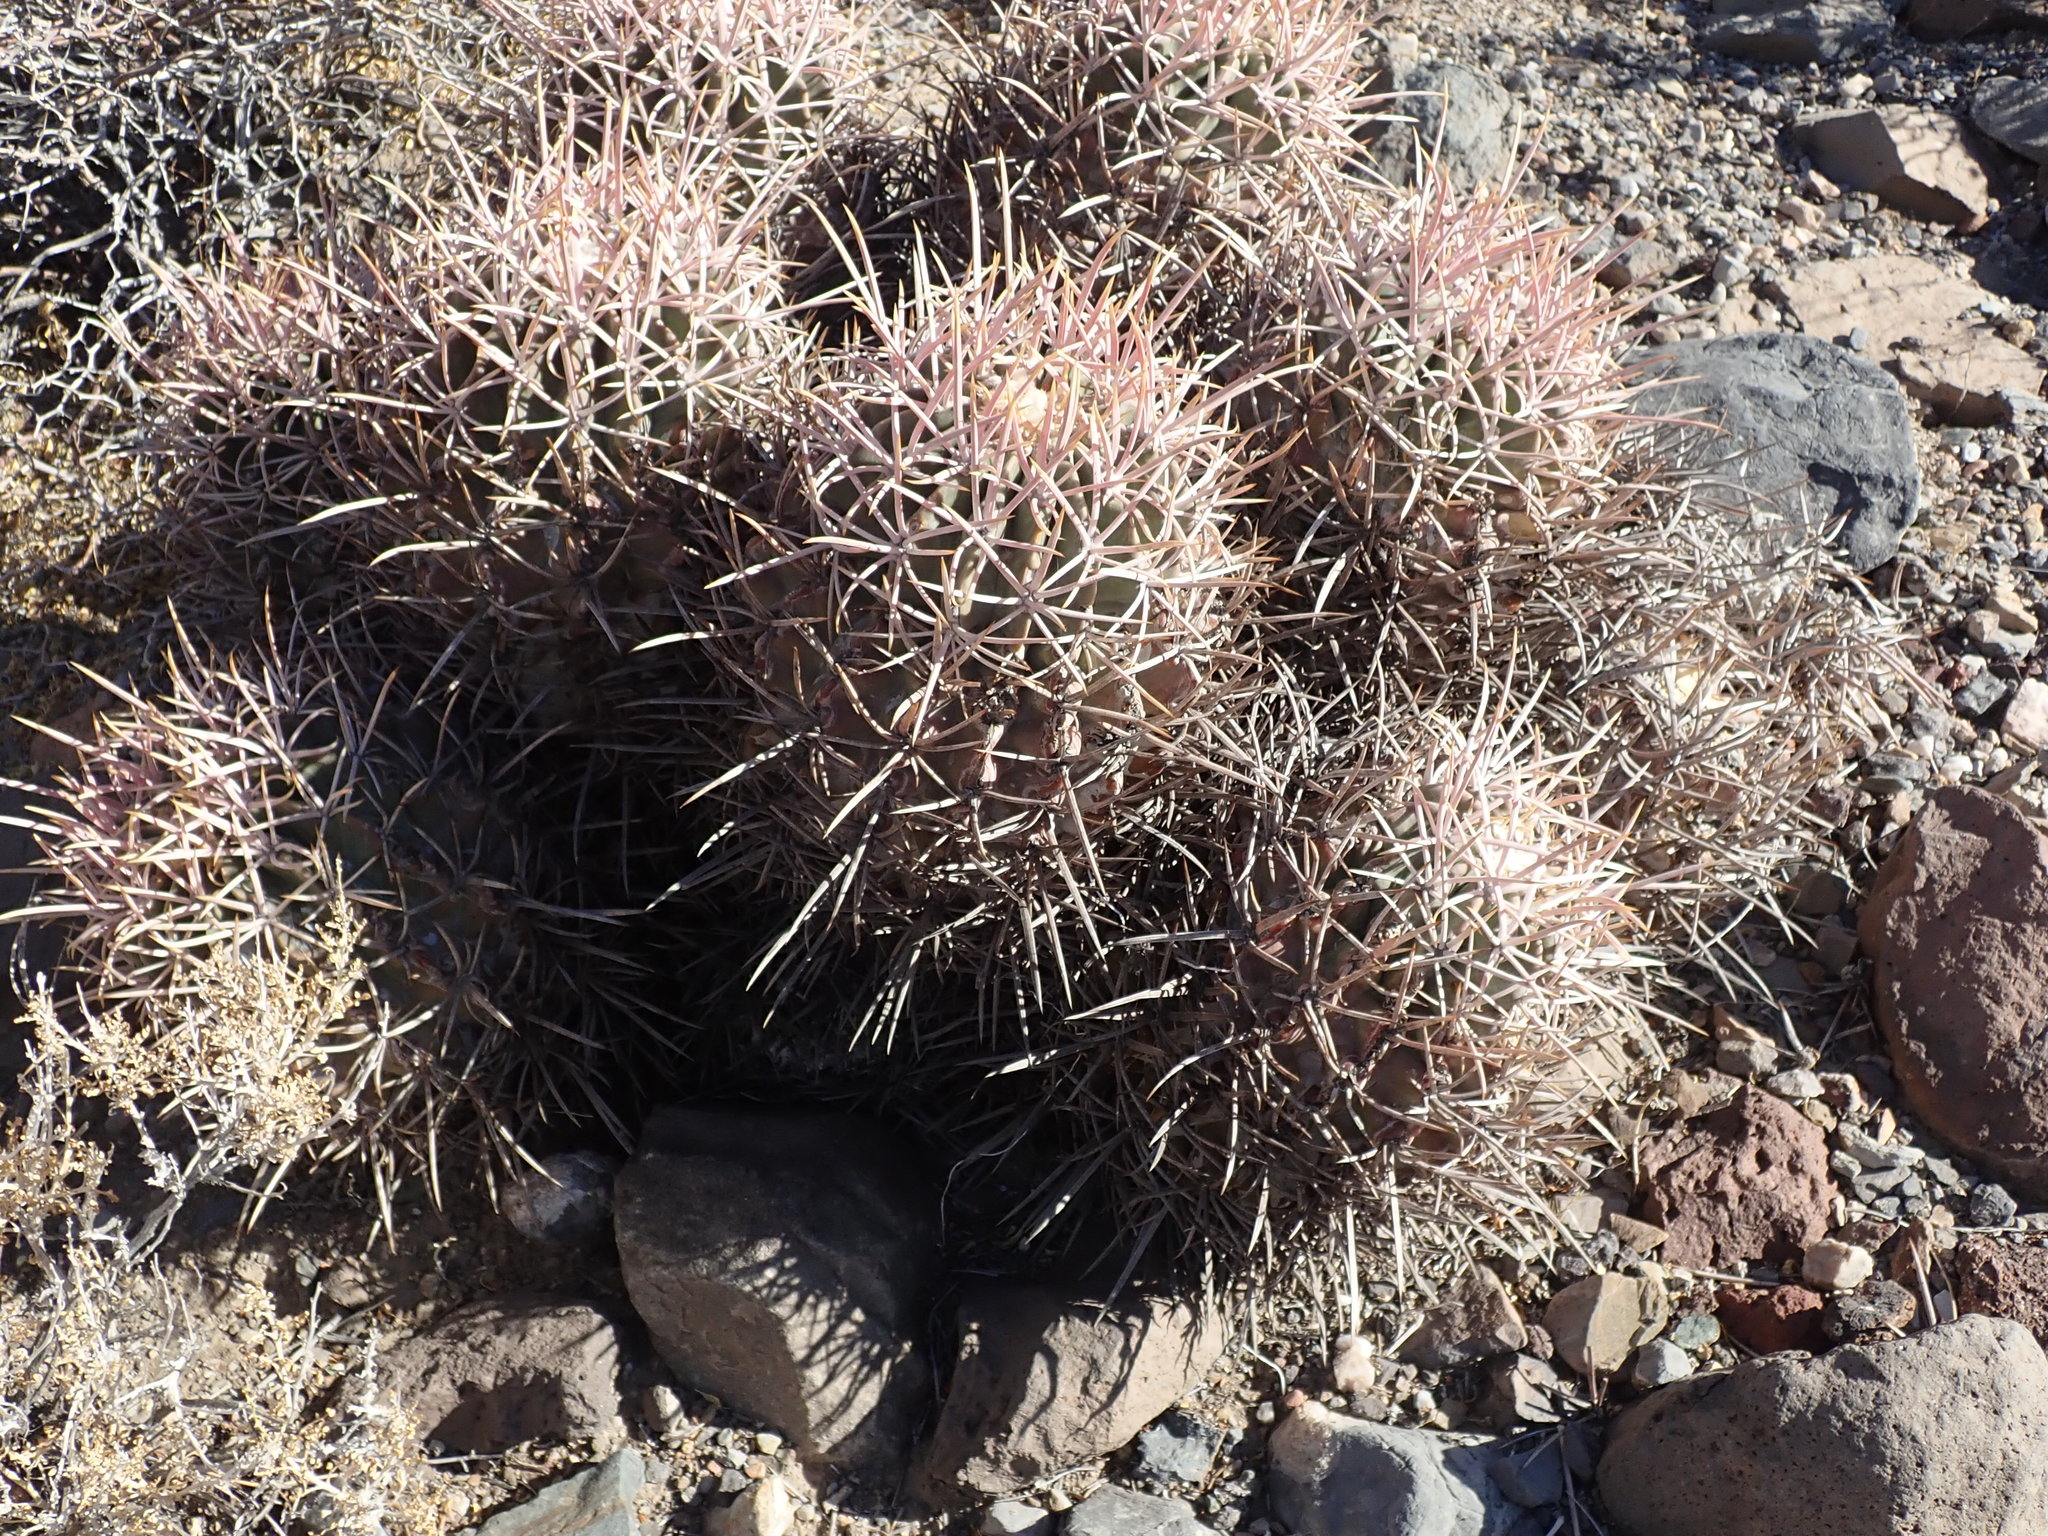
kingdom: Plantae
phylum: Tracheophyta
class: Magnoliopsida
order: Caryophyllales
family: Cactaceae
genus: Echinocactus
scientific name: Echinocactus polycephalus
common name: Cottontop cactus
